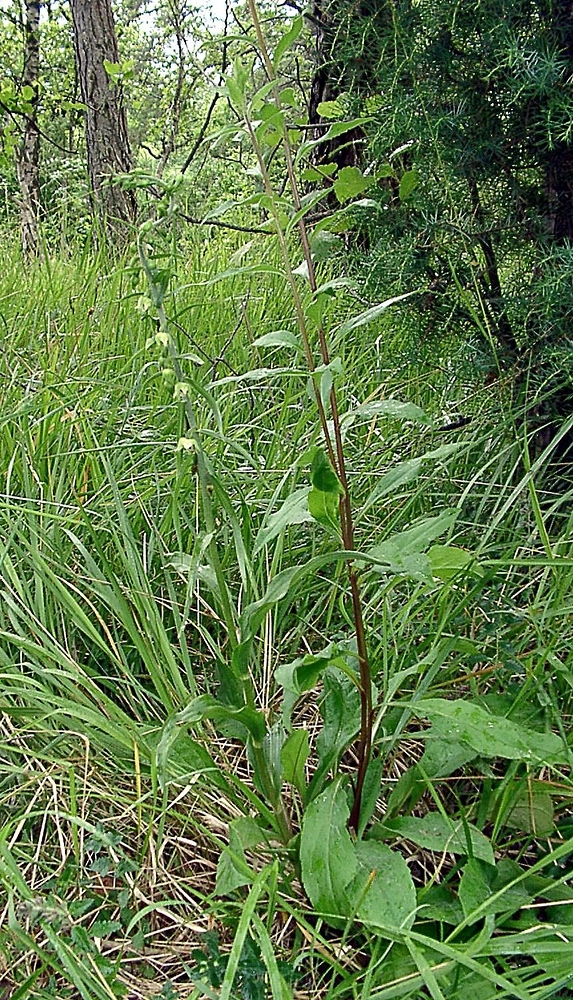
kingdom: Plantae
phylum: Tracheophyta
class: Liliopsida
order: Asparagales
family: Orchidaceae
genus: Epipactis
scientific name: Epipactis muelleri
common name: Mueller's epipactis
